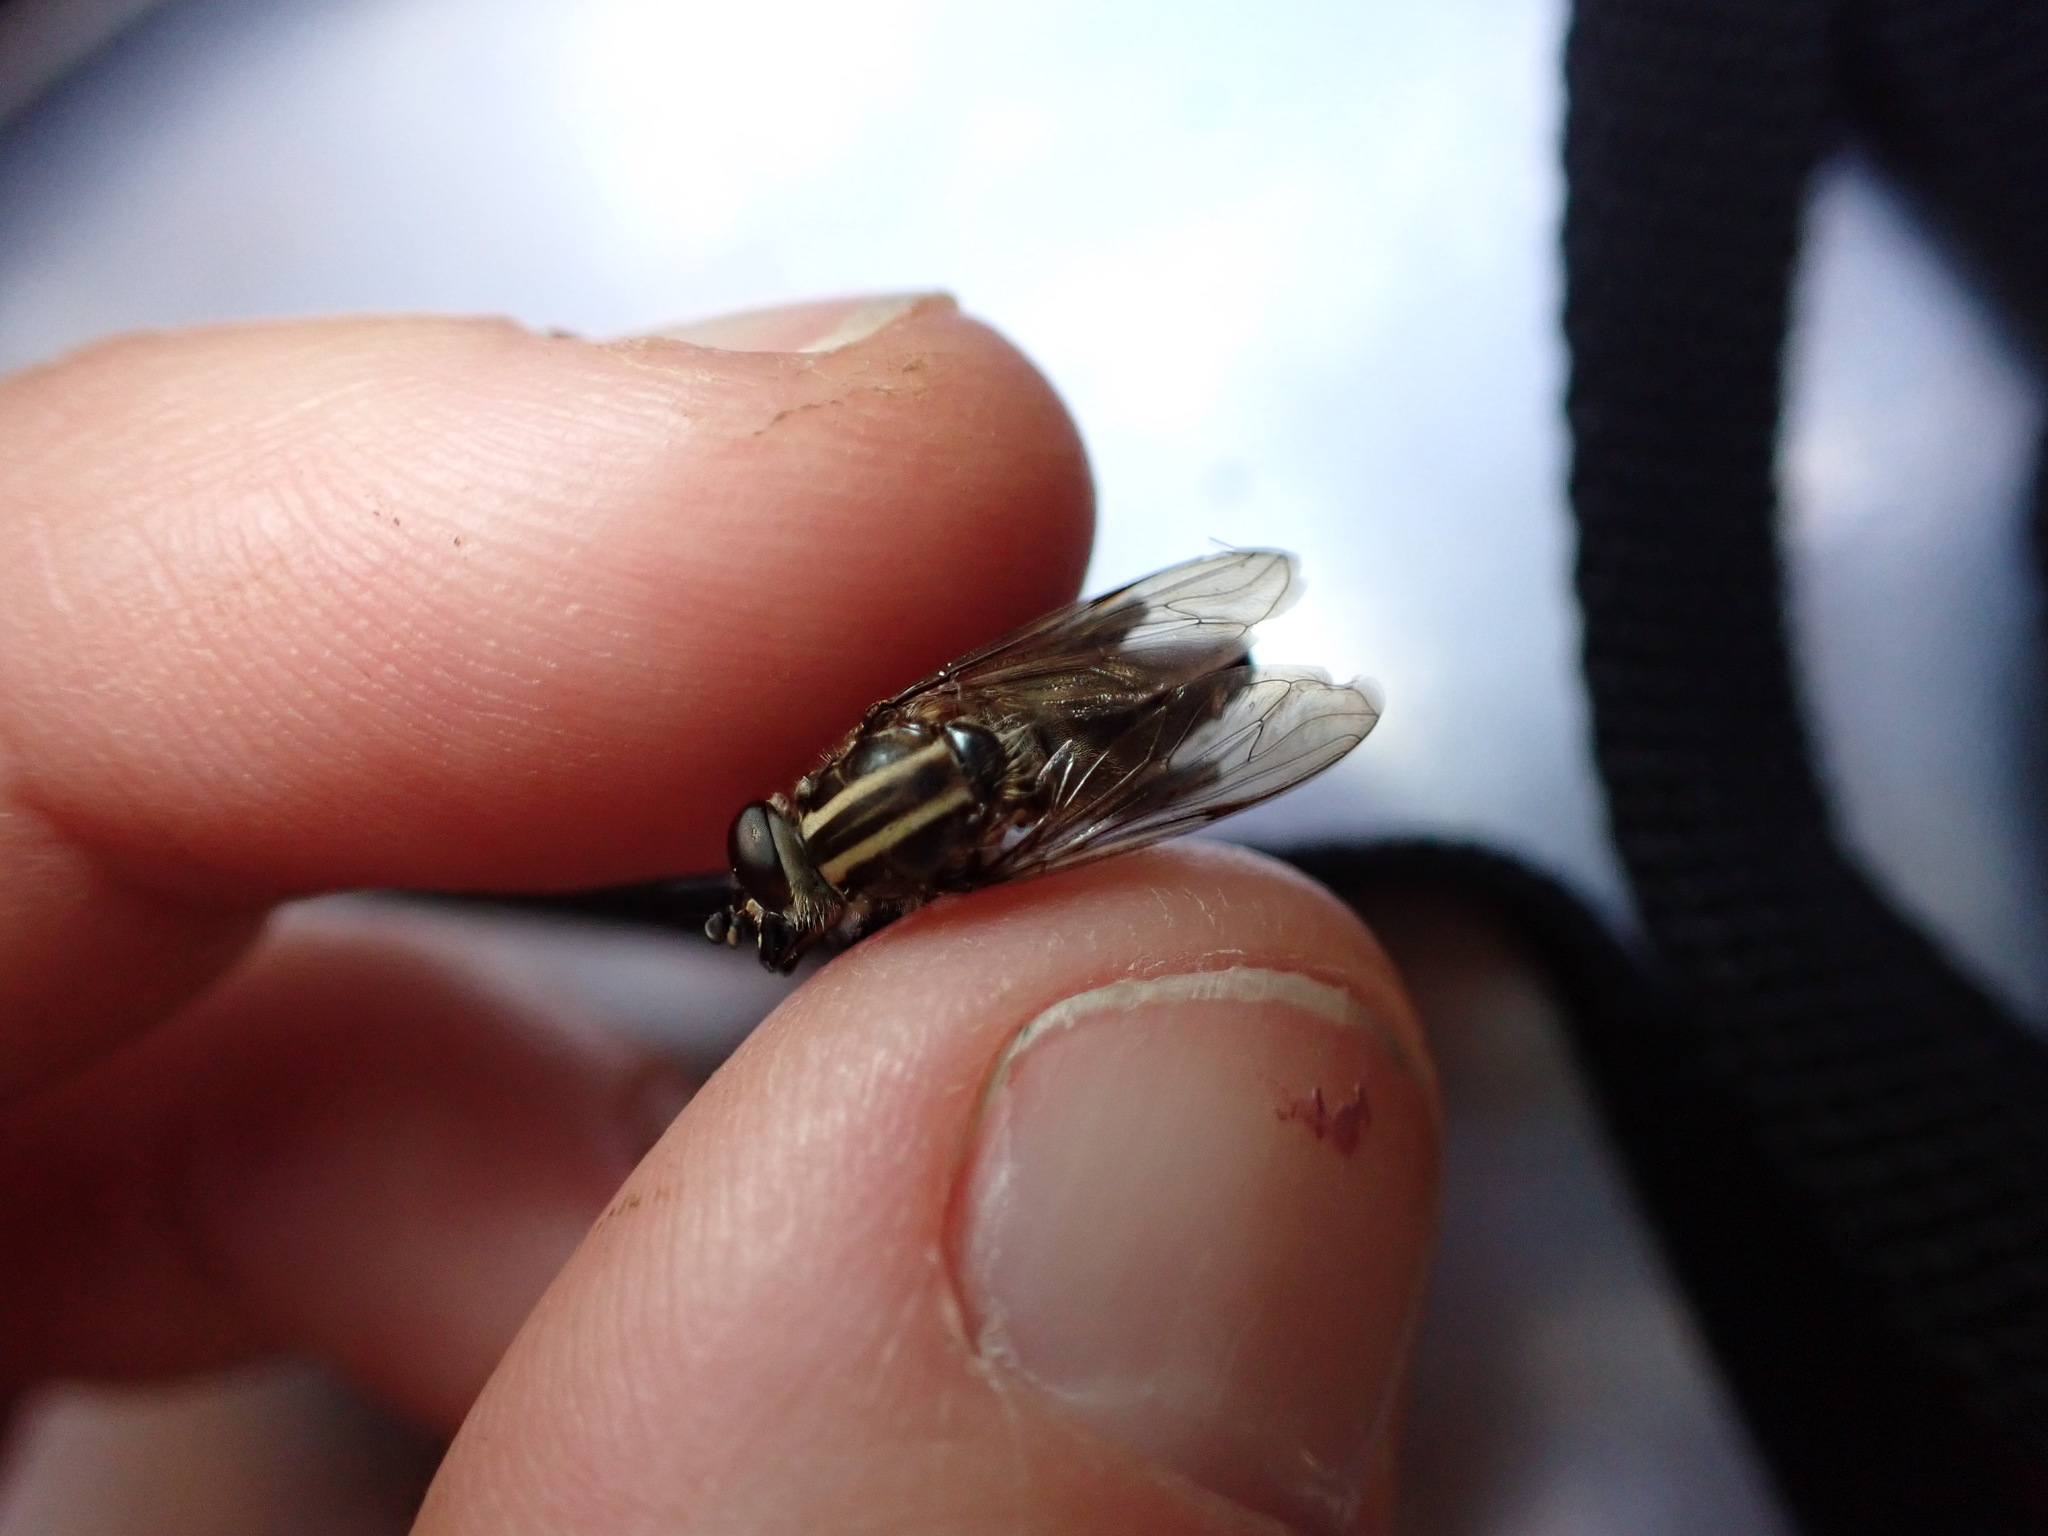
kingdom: Animalia
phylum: Arthropoda
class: Insecta
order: Diptera
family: Syrphidae
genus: Helophilus
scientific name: Helophilus antipodus
